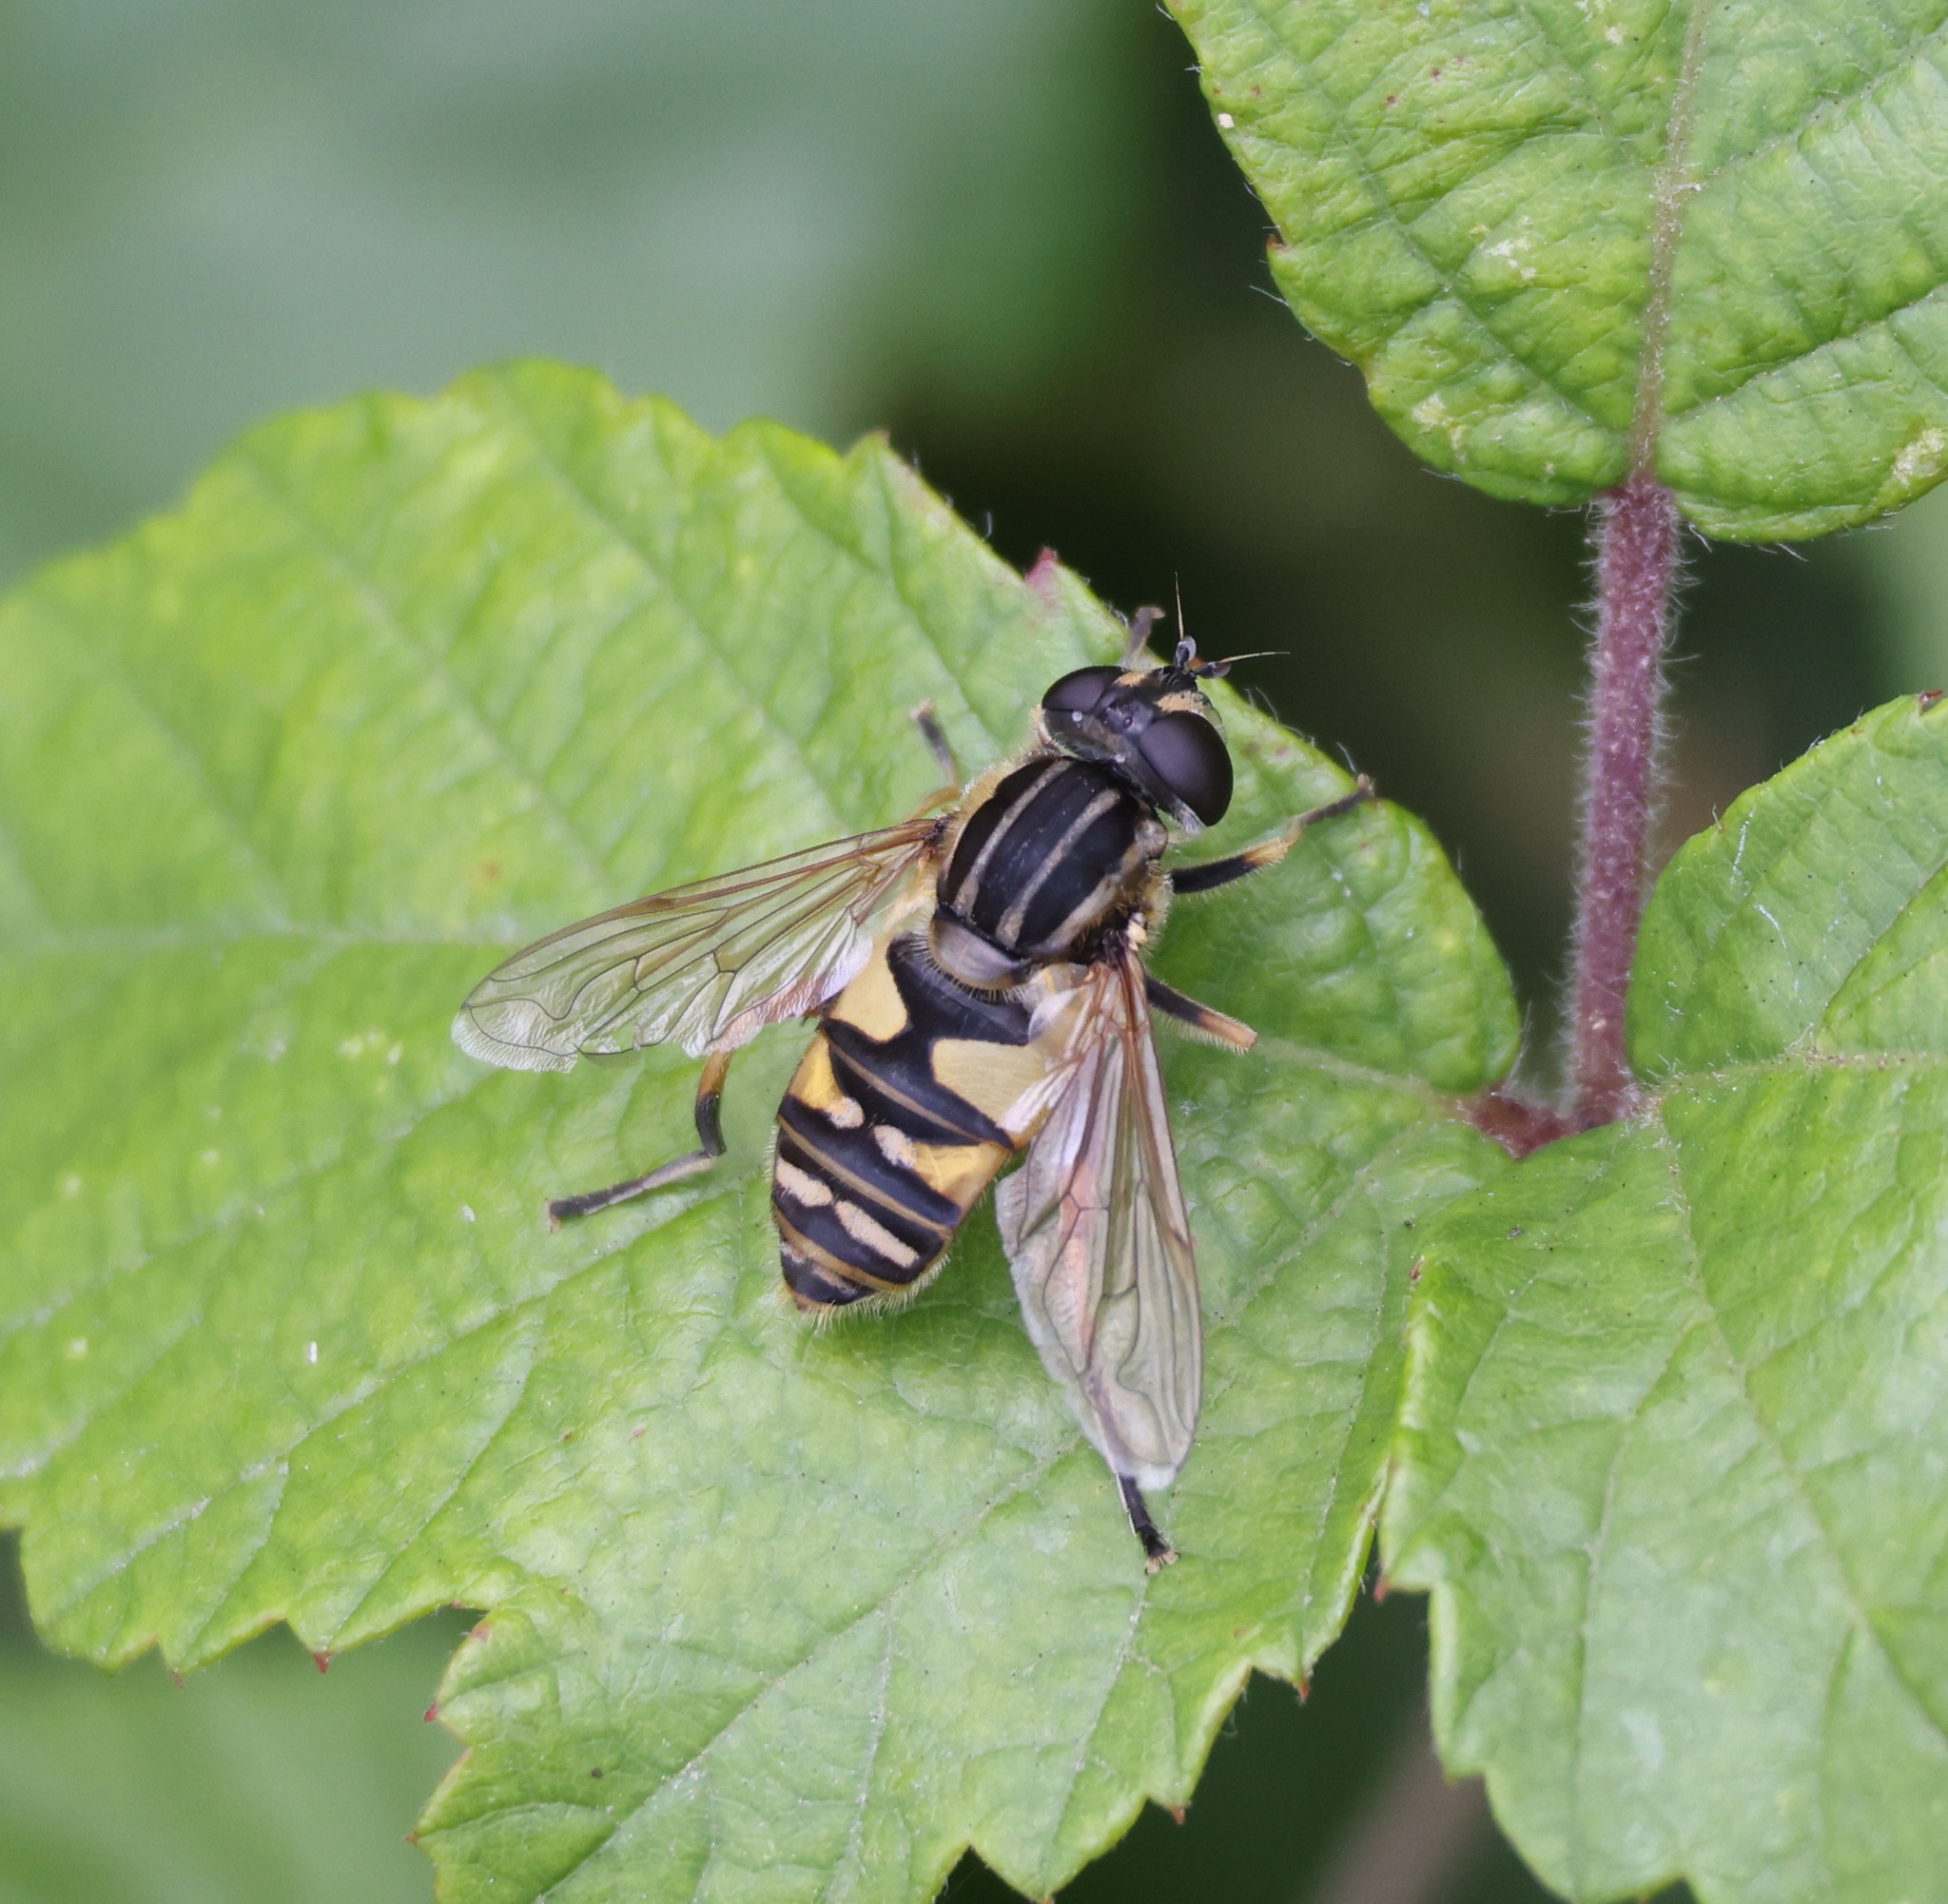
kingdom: Animalia
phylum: Arthropoda
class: Insecta
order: Diptera
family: Syrphidae
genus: Helophilus
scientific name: Helophilus pendulus
